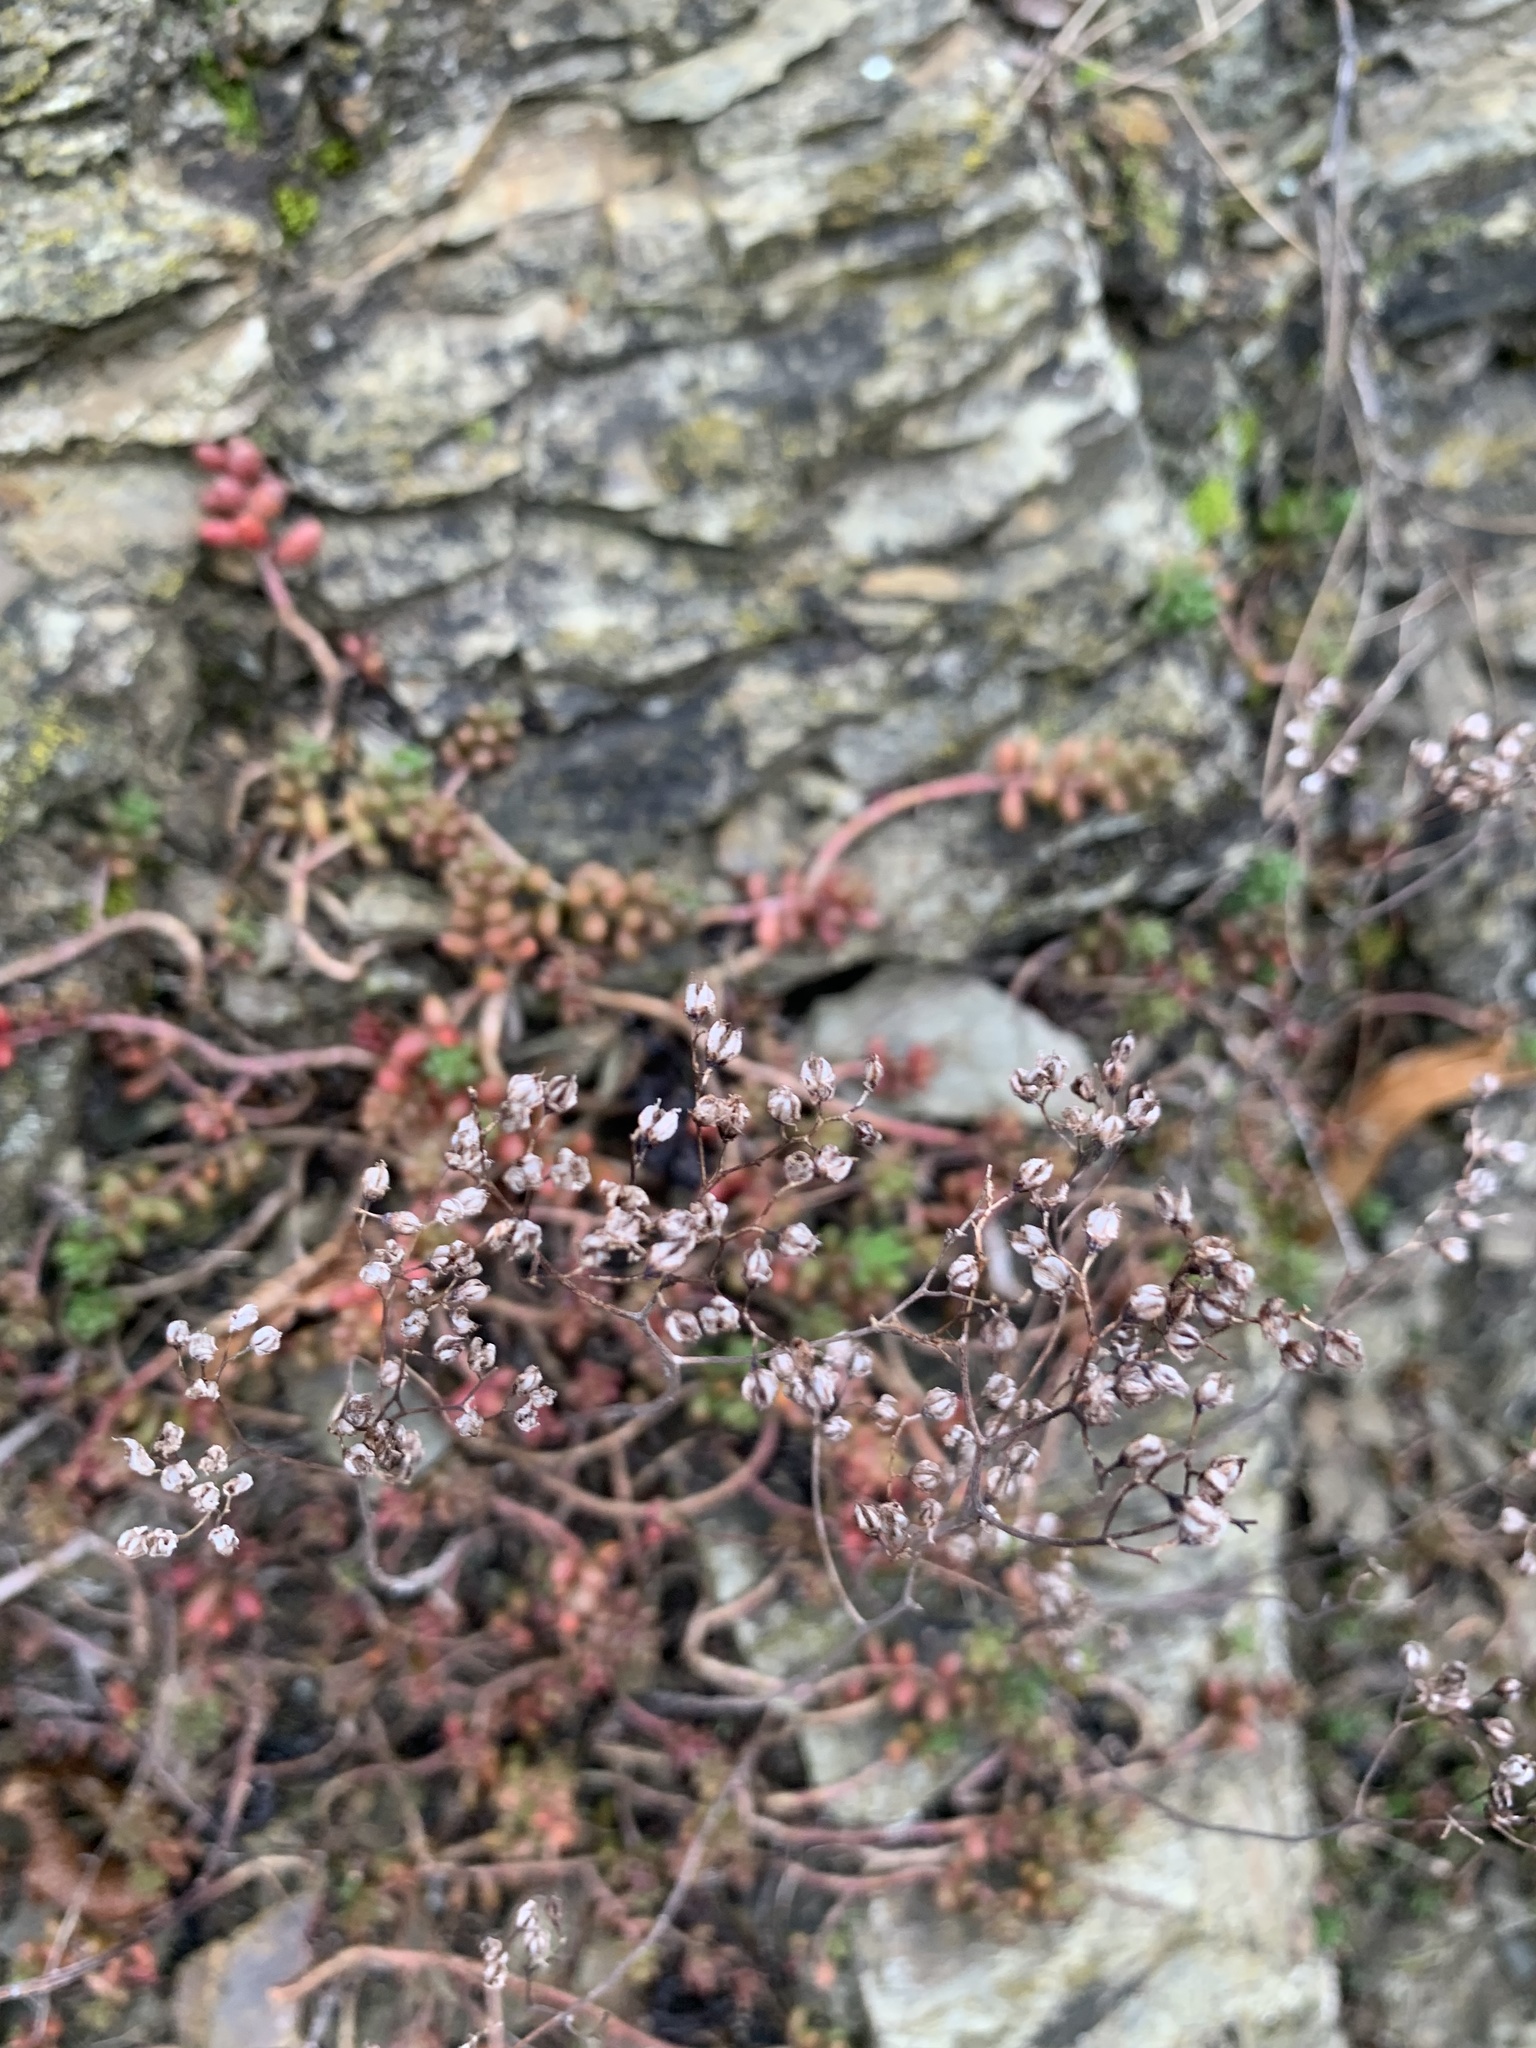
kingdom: Plantae
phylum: Tracheophyta
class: Magnoliopsida
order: Saxifragales
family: Crassulaceae
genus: Sedum
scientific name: Sedum album
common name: White stonecrop
